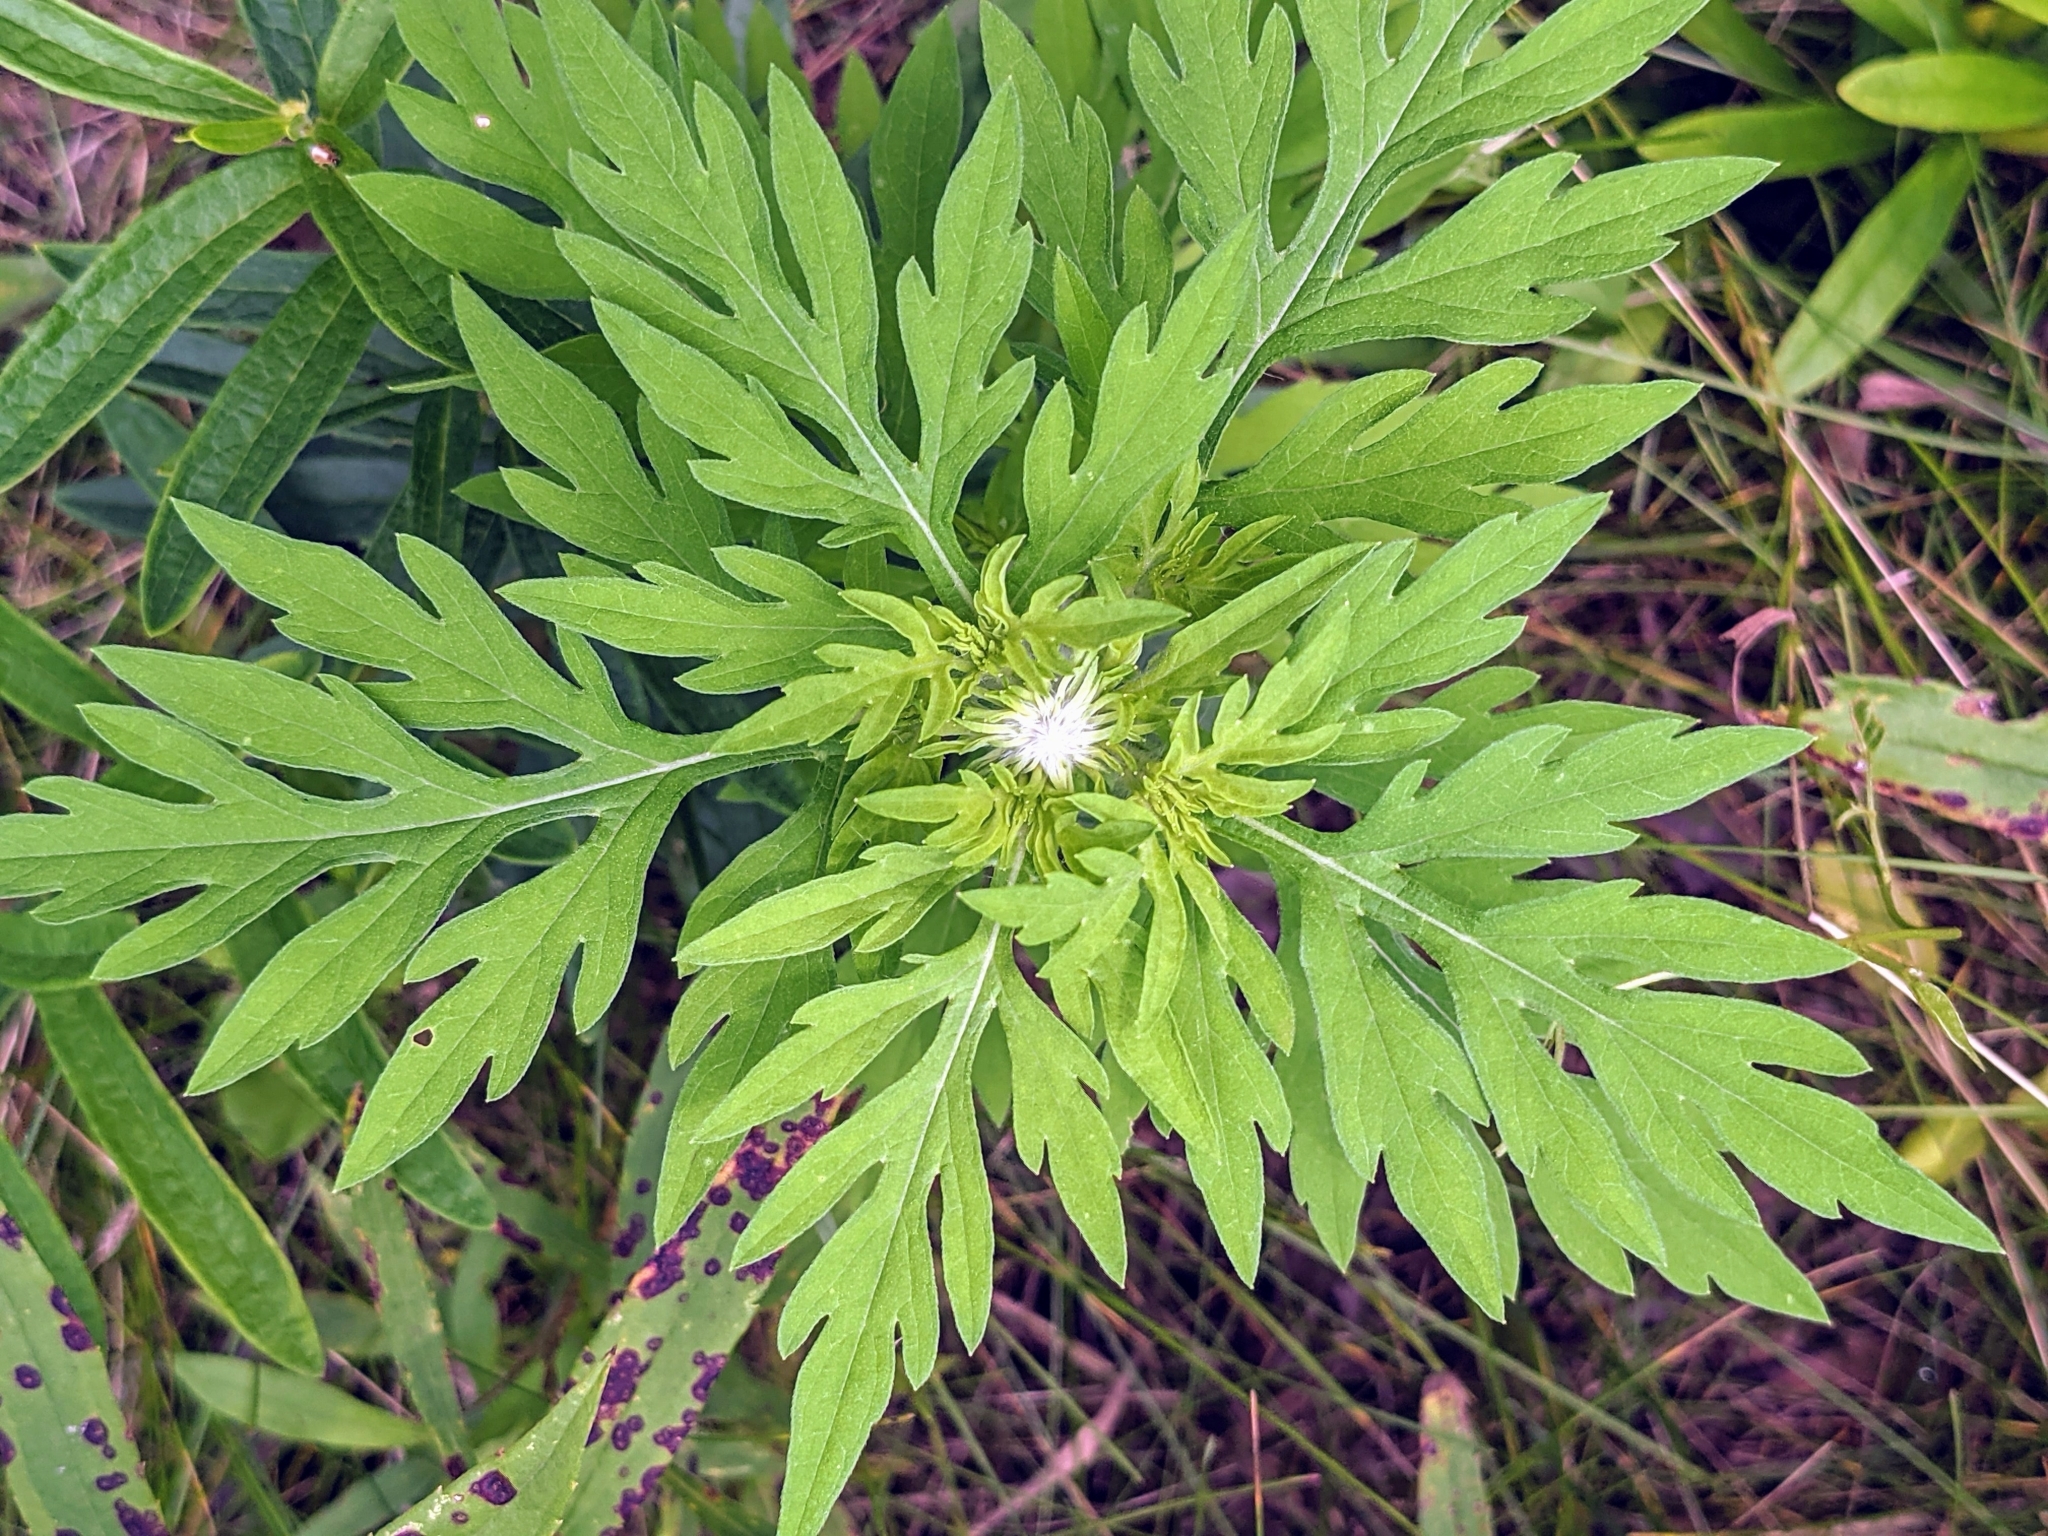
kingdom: Plantae
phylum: Tracheophyta
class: Magnoliopsida
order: Asterales
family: Asteraceae
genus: Ambrosia
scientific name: Ambrosia artemisiifolia
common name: Annual ragweed
